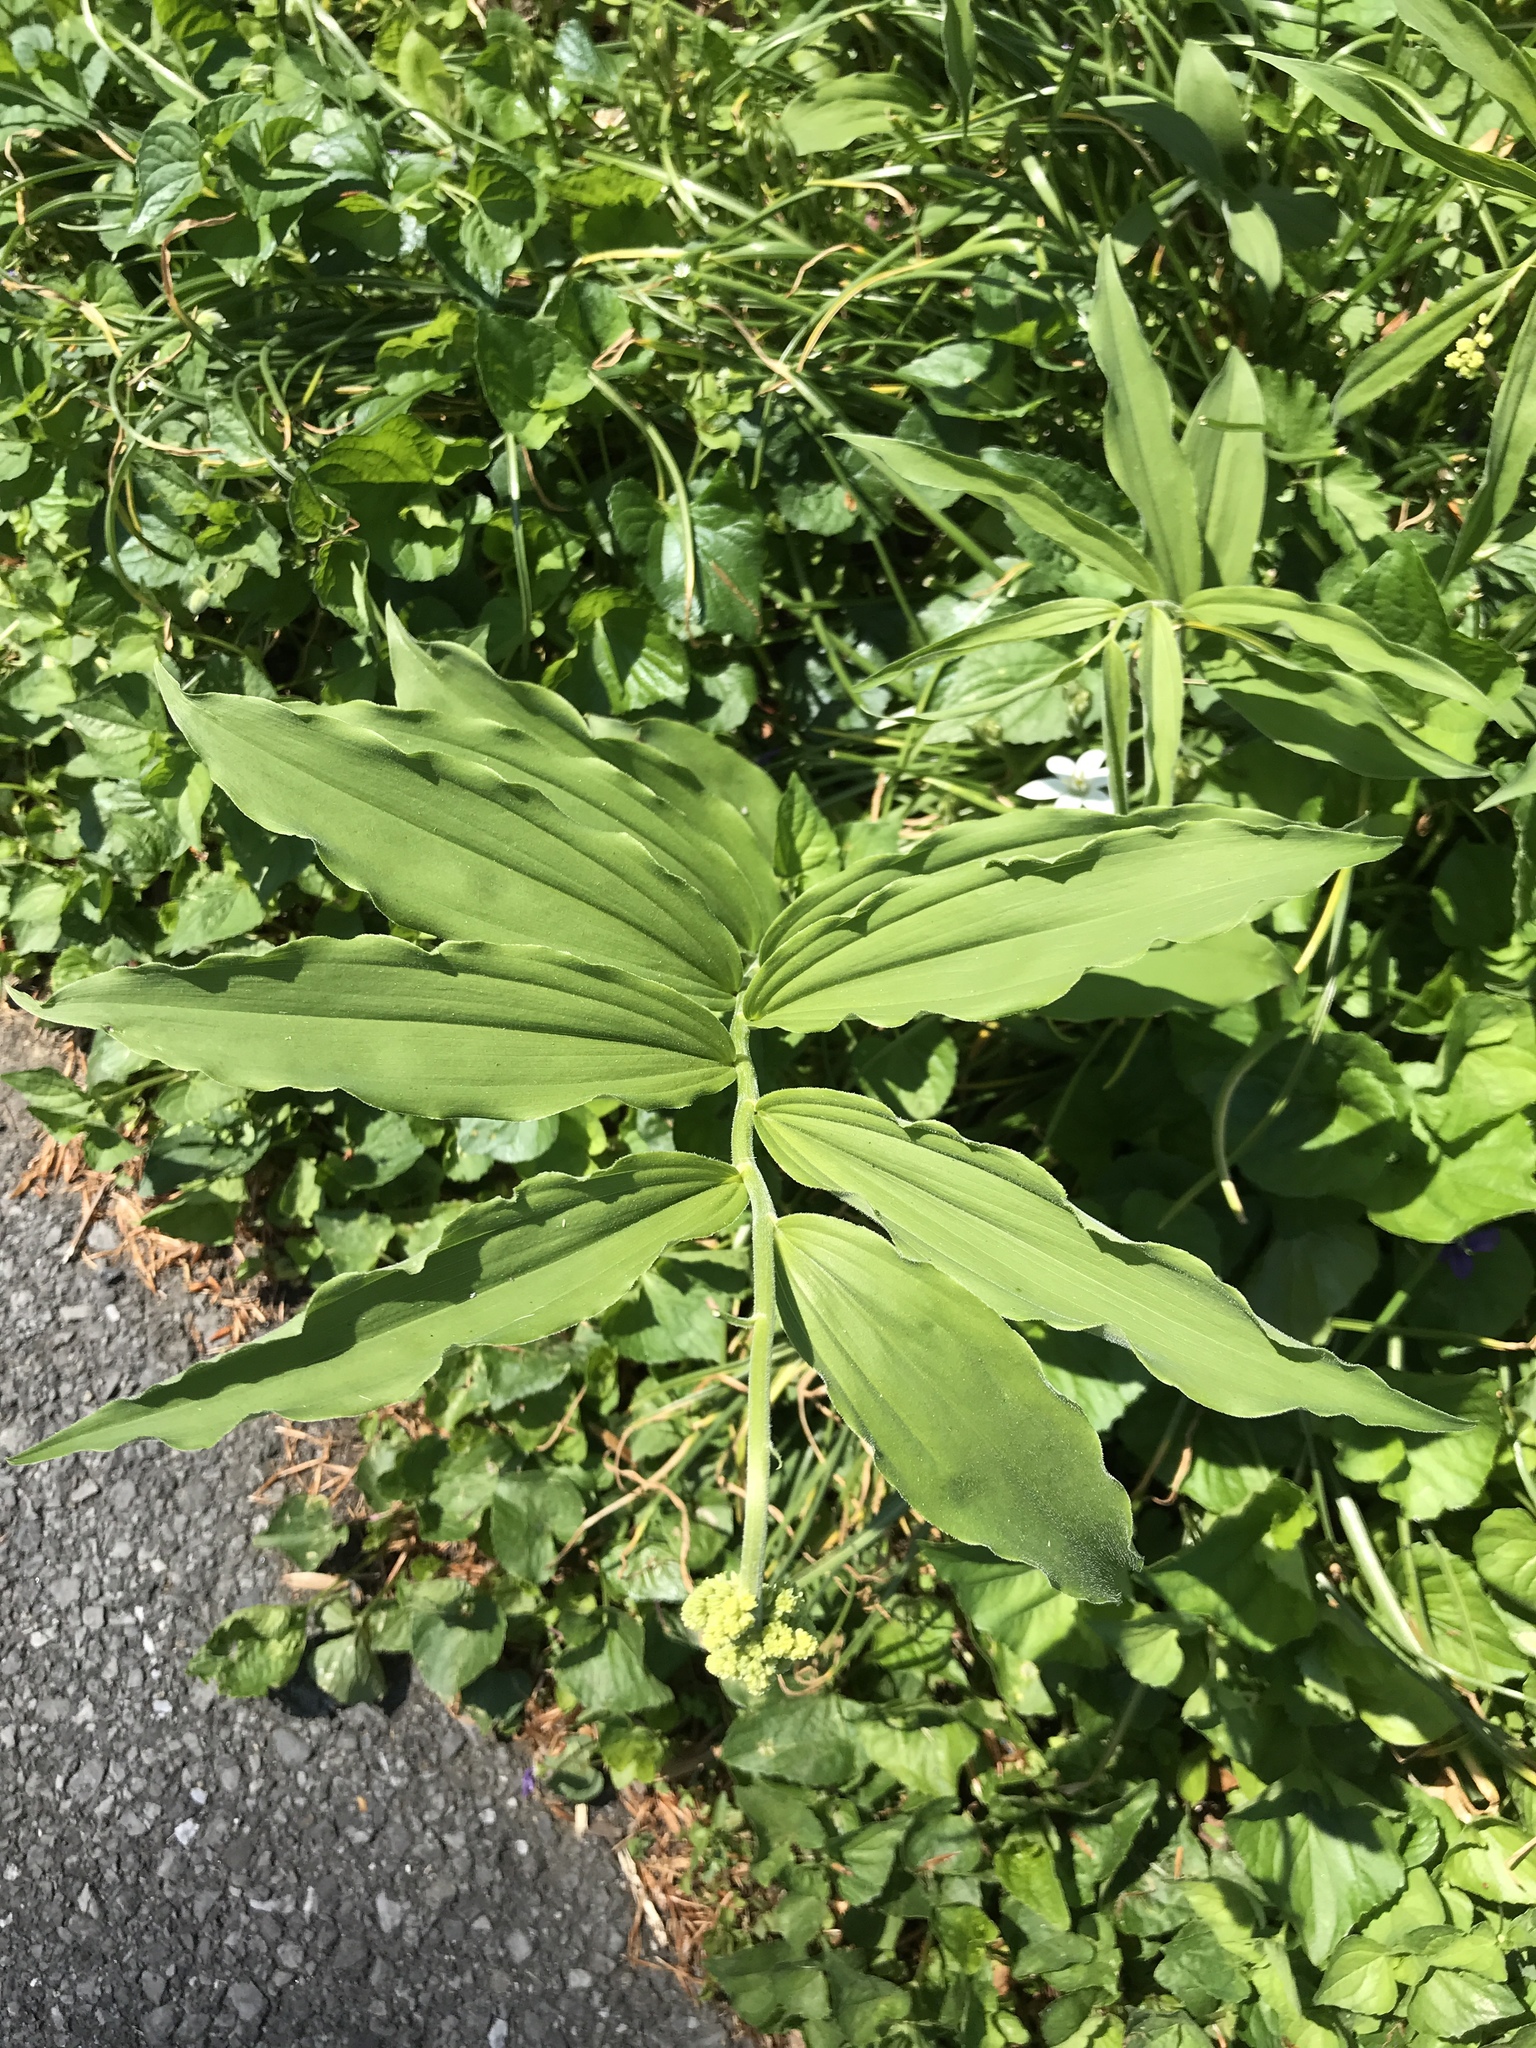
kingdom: Plantae
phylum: Tracheophyta
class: Liliopsida
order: Asparagales
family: Asparagaceae
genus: Maianthemum
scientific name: Maianthemum racemosum
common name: False spikenard
